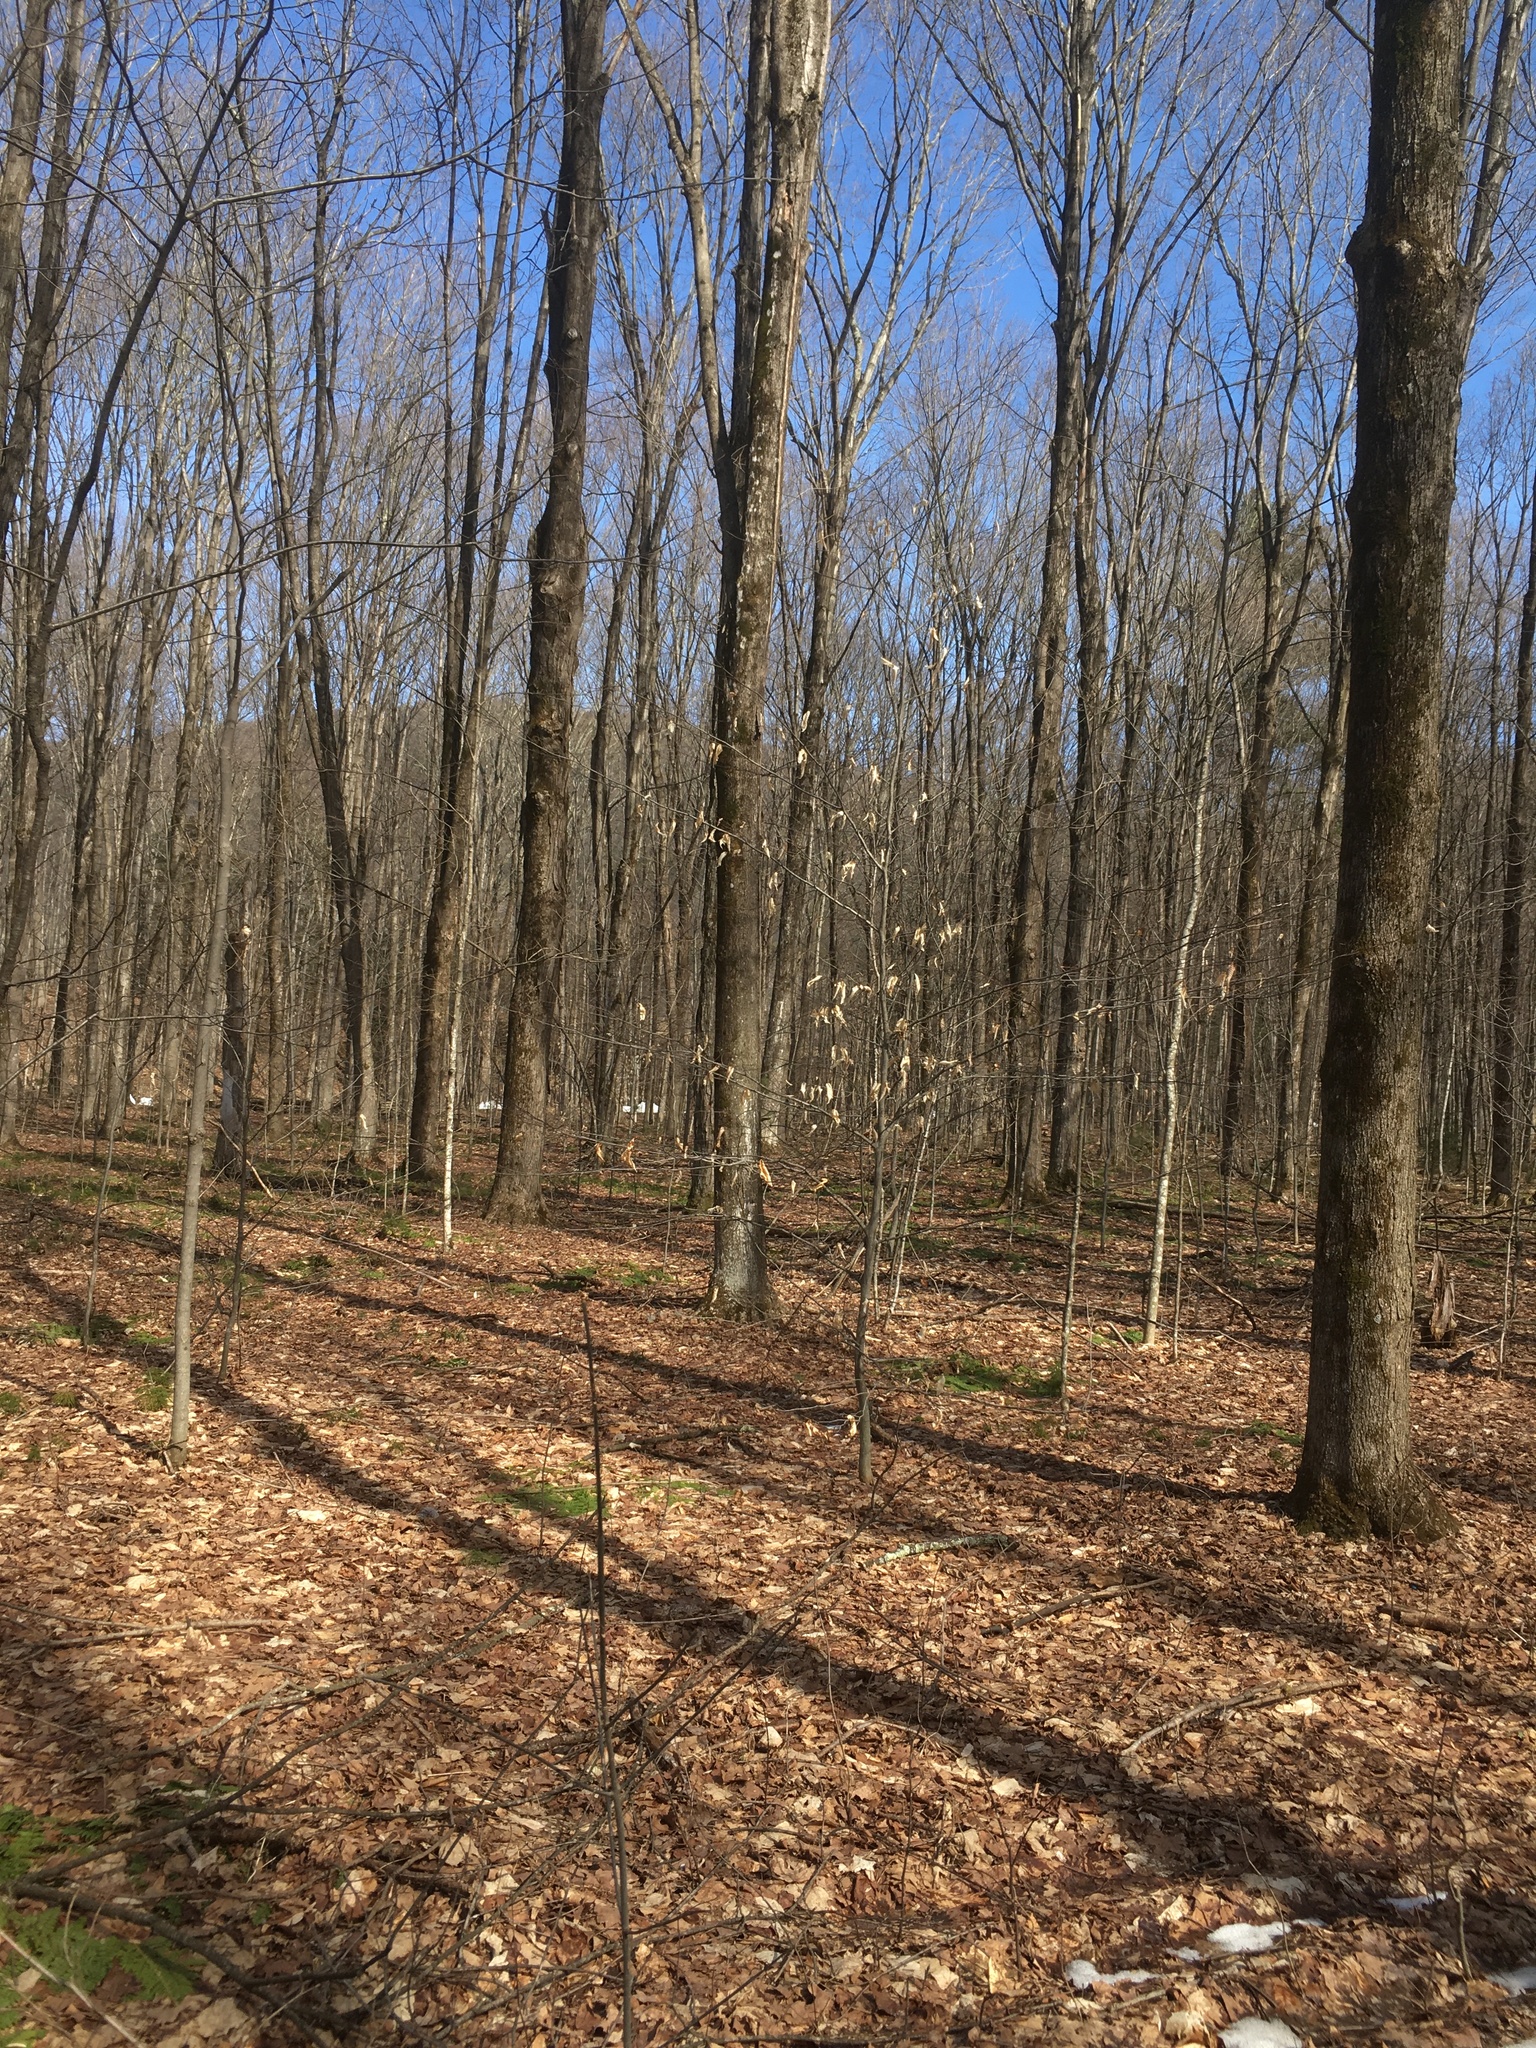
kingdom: Plantae
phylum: Tracheophyta
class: Magnoliopsida
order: Fagales
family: Fagaceae
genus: Fagus
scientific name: Fagus grandifolia
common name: American beech
